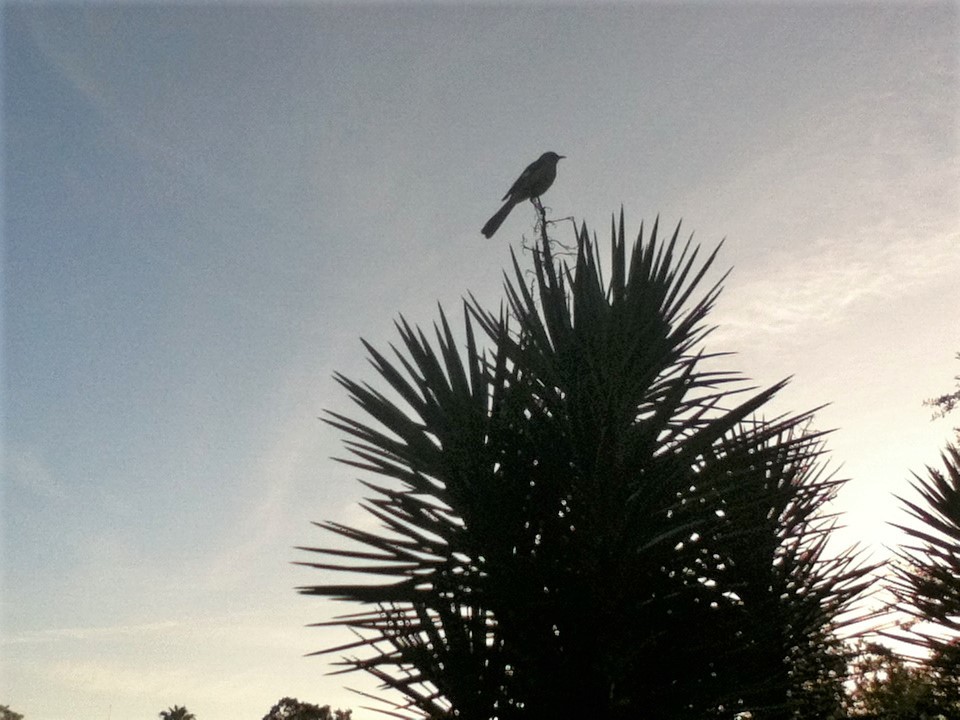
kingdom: Animalia
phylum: Chordata
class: Aves
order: Passeriformes
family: Mimidae
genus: Mimus
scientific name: Mimus polyglottos
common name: Northern mockingbird
